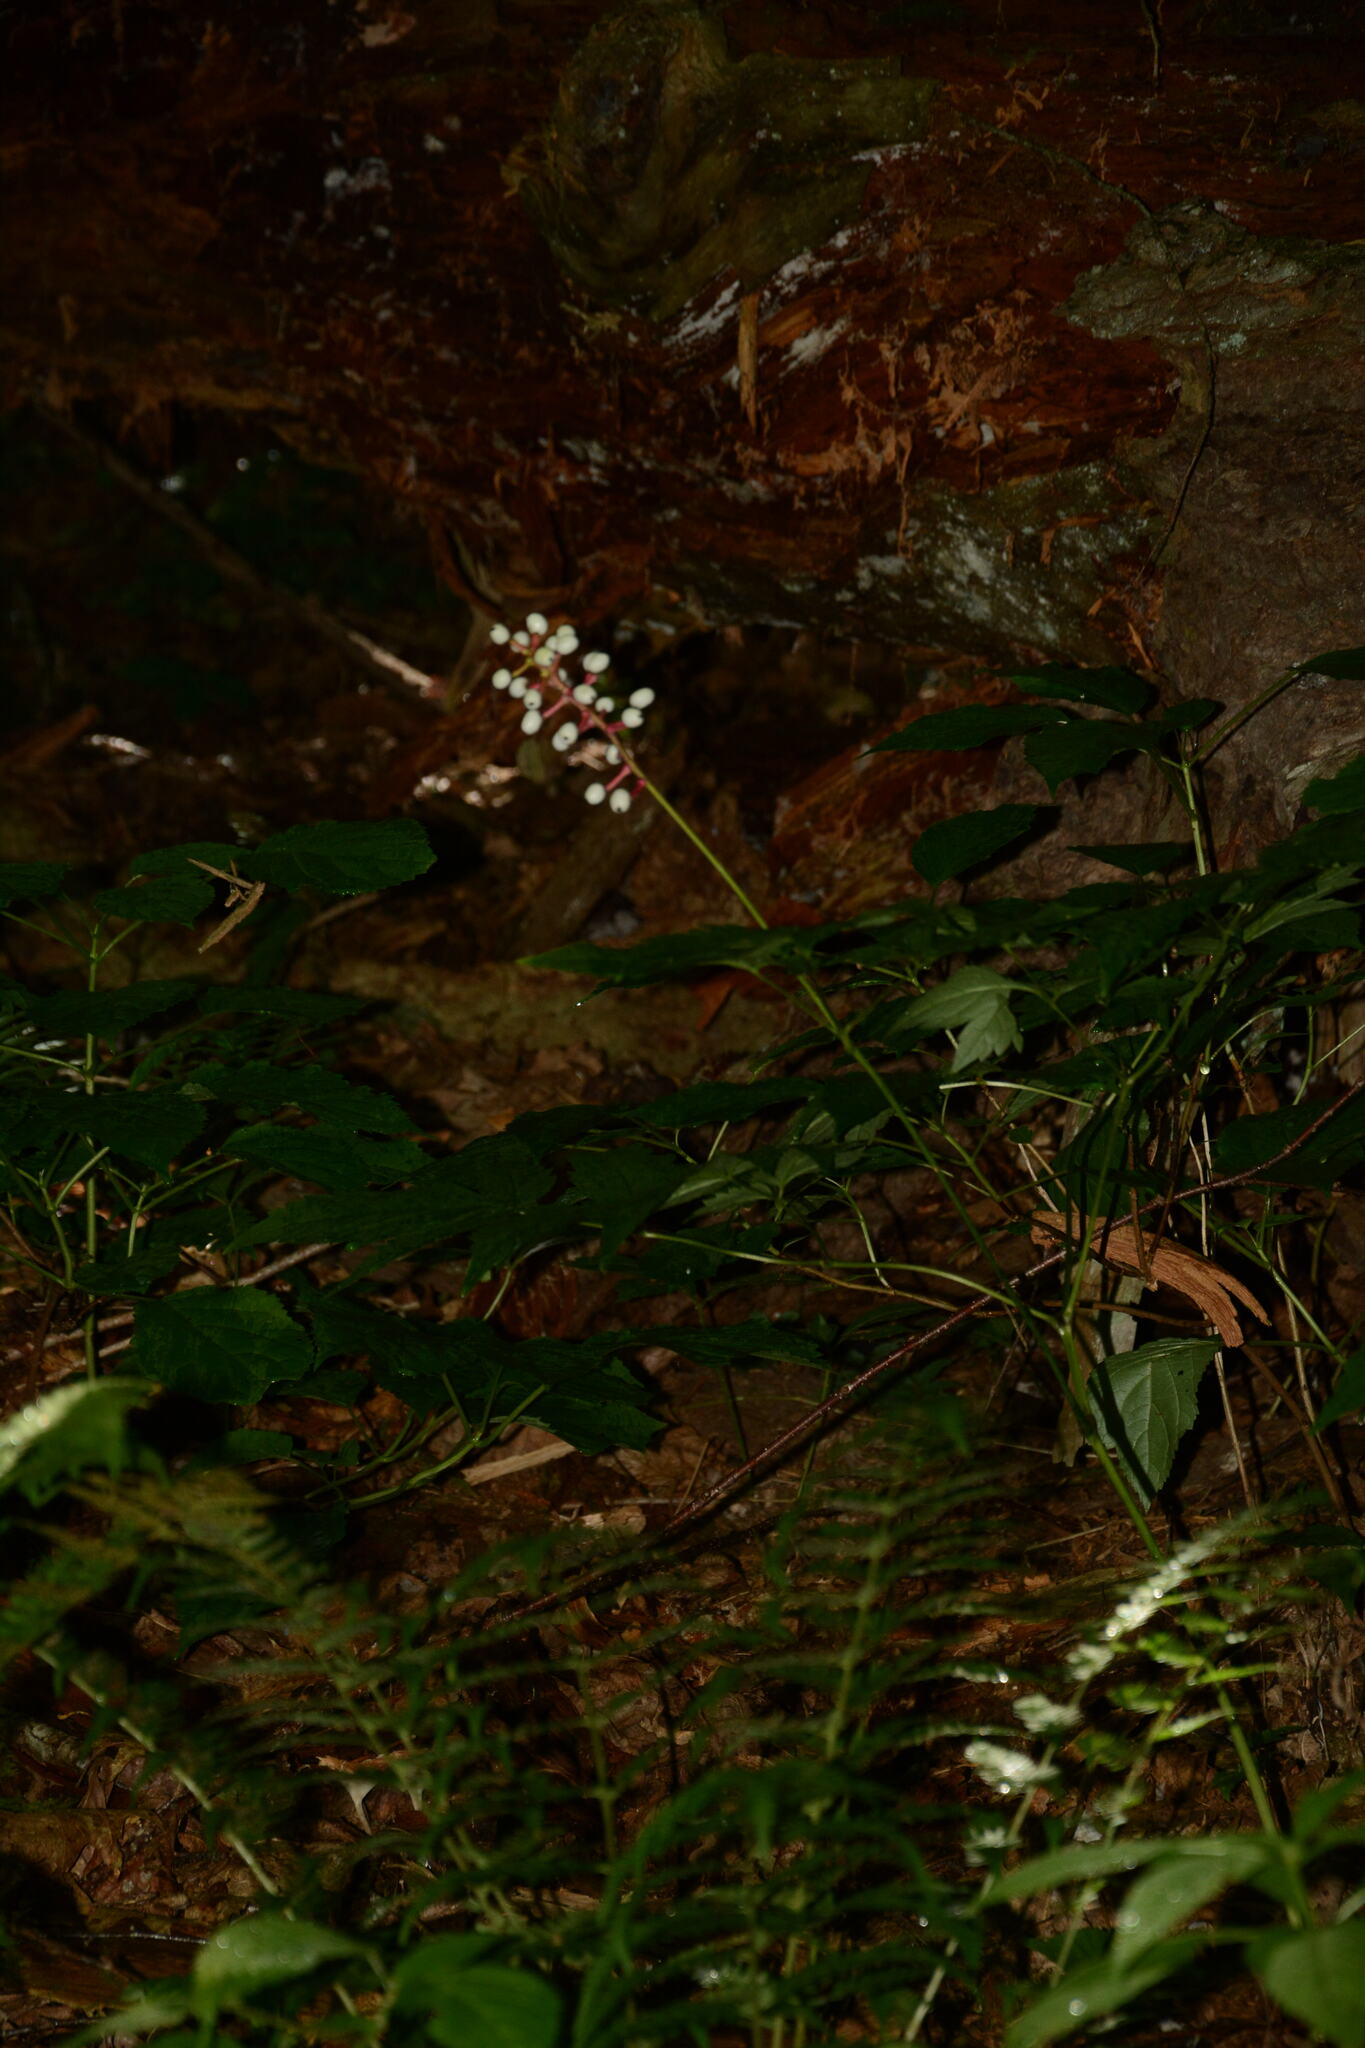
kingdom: Plantae
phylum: Tracheophyta
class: Magnoliopsida
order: Ranunculales
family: Ranunculaceae
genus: Actaea
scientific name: Actaea pachypoda
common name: Doll's-eyes
